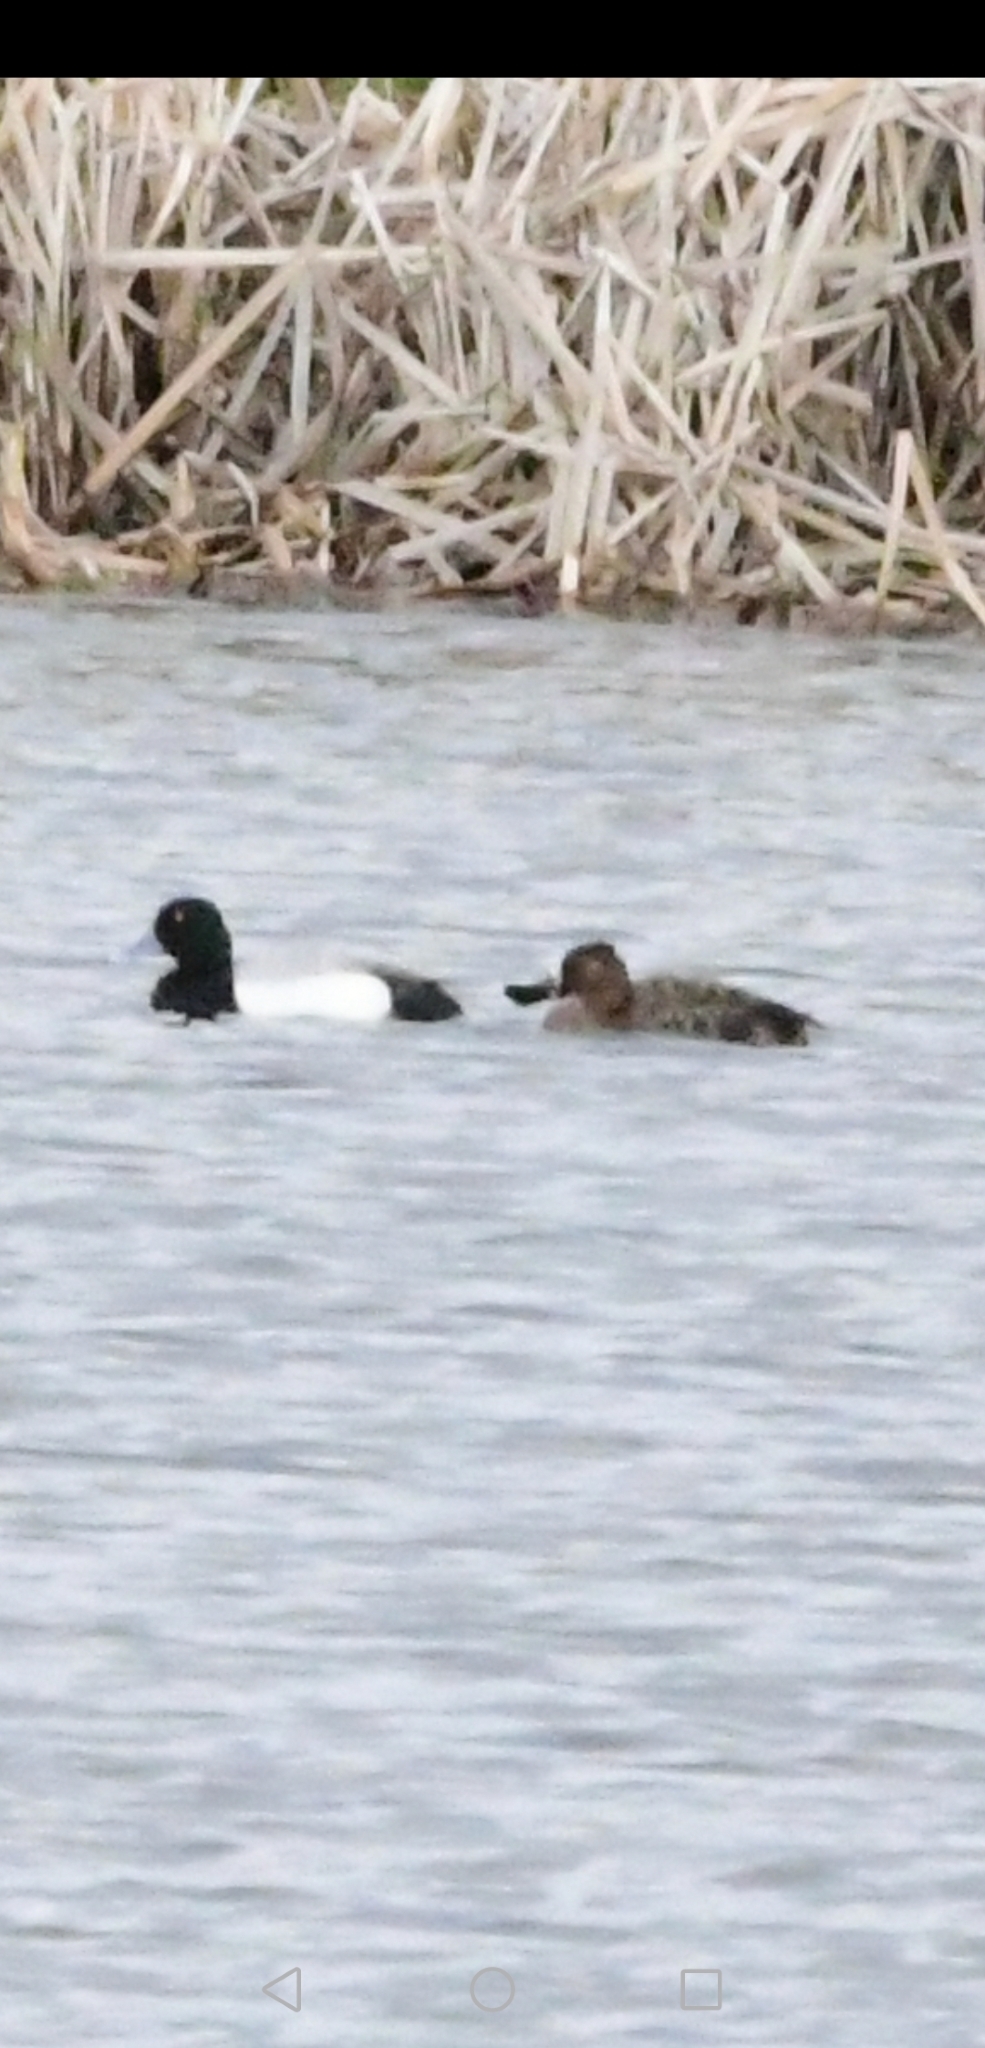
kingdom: Animalia
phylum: Chordata
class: Aves
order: Anseriformes
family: Anatidae
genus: Aythya
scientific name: Aythya affinis
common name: Lesser scaup
